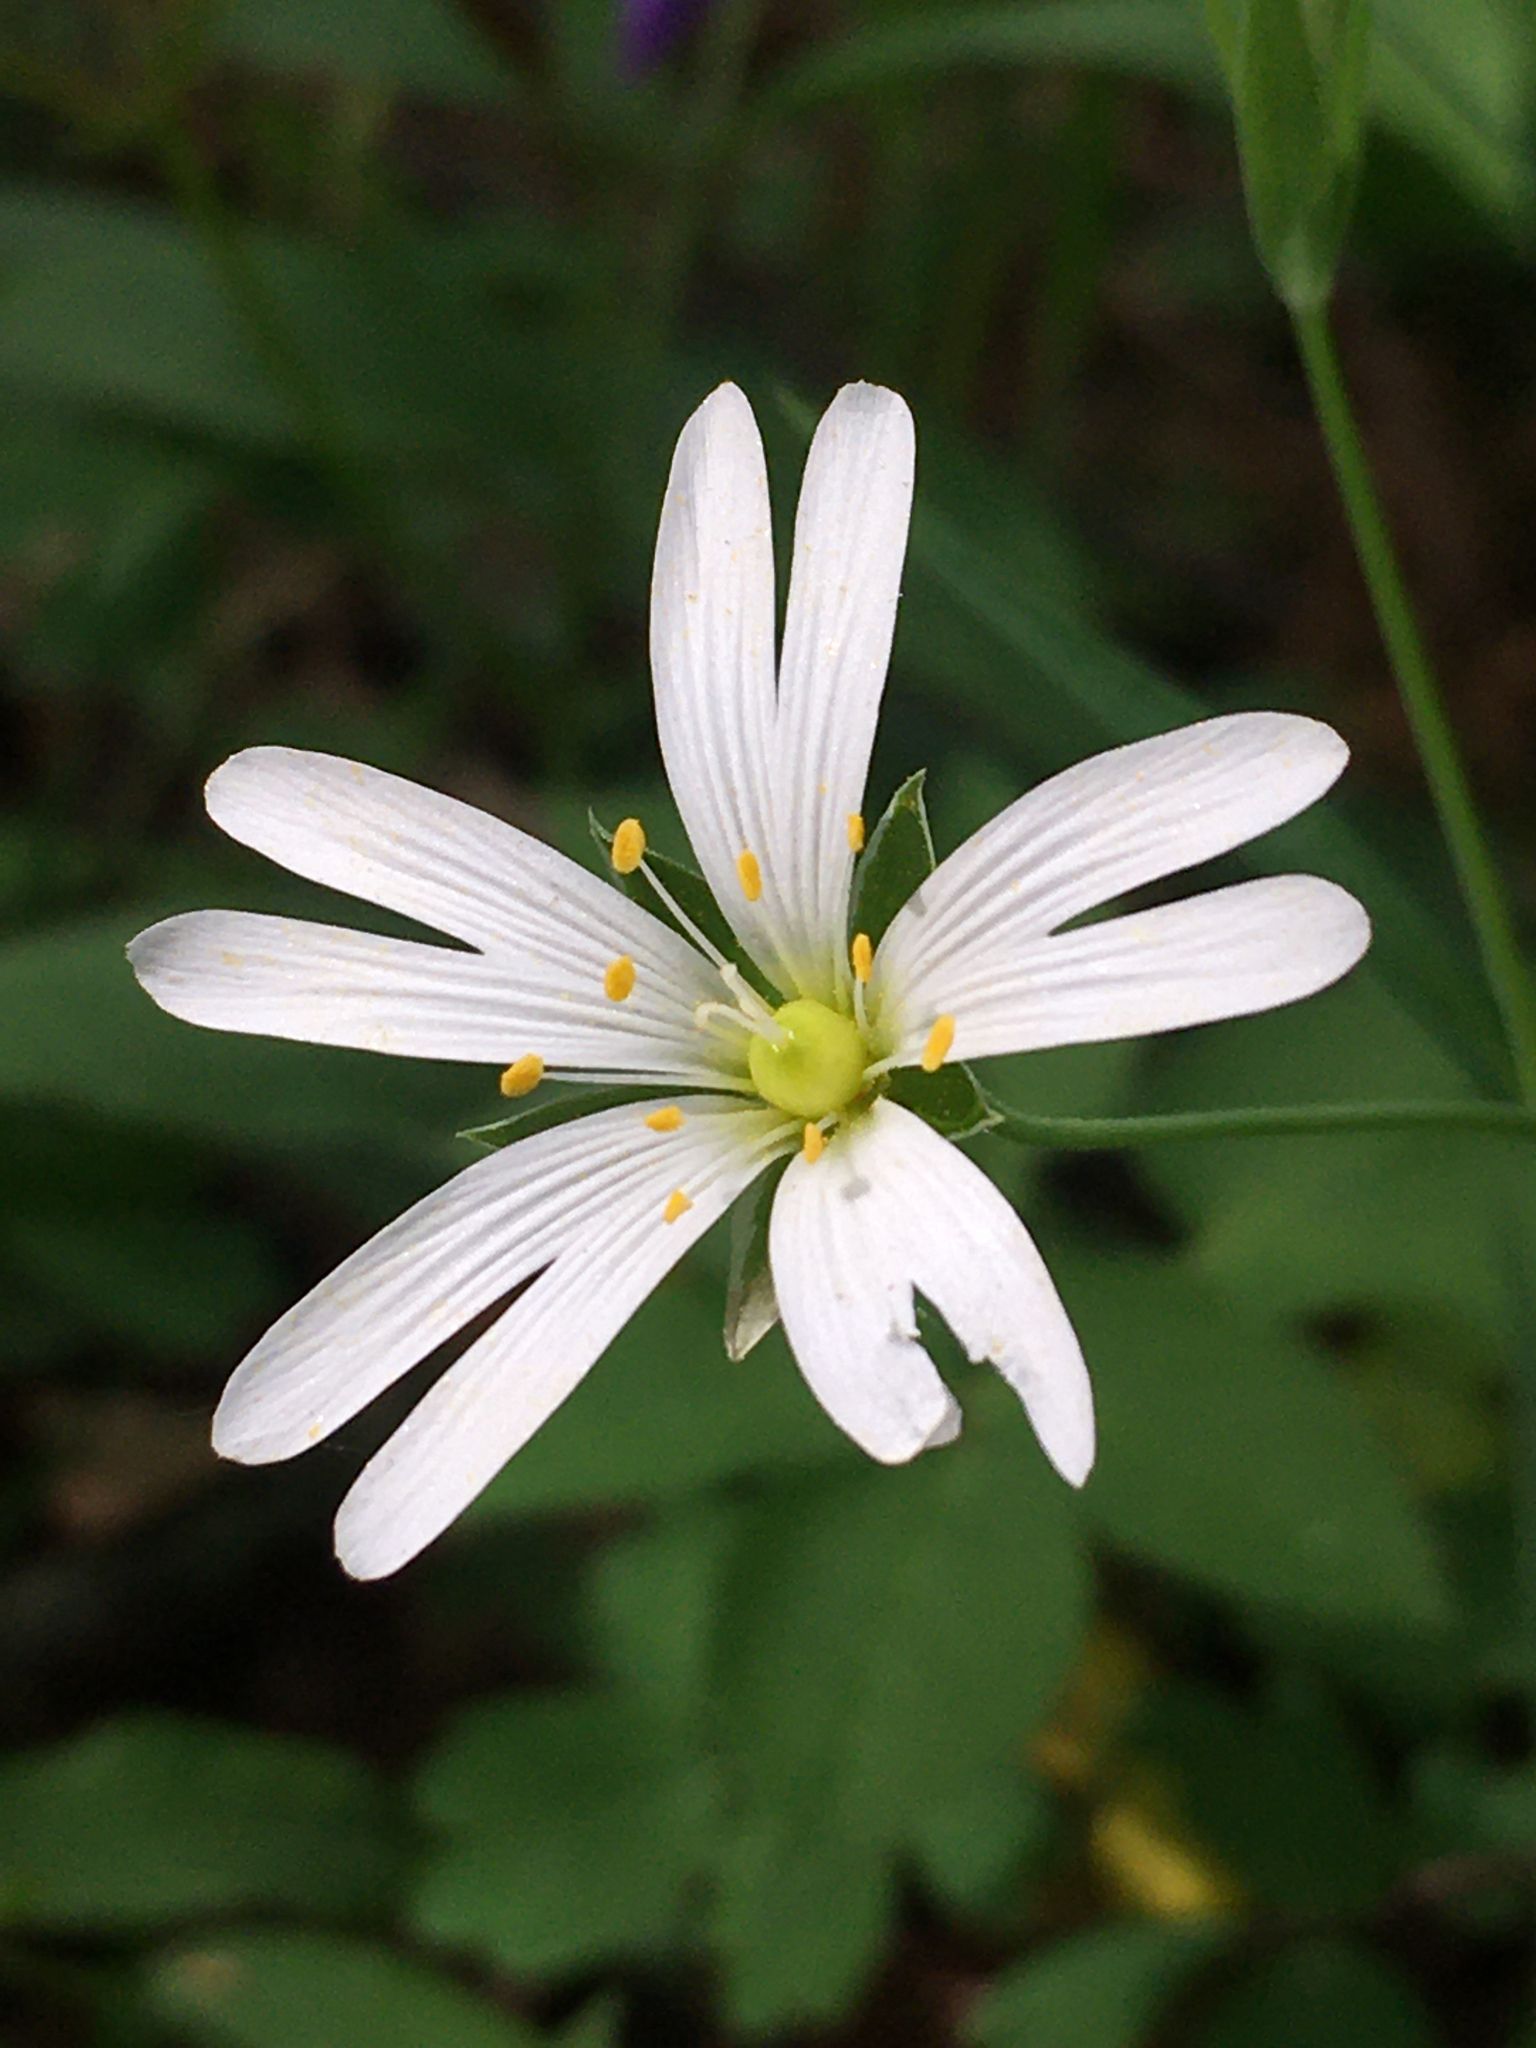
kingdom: Plantae
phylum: Tracheophyta
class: Magnoliopsida
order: Caryophyllales
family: Caryophyllaceae
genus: Rabelera
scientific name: Rabelera holostea
